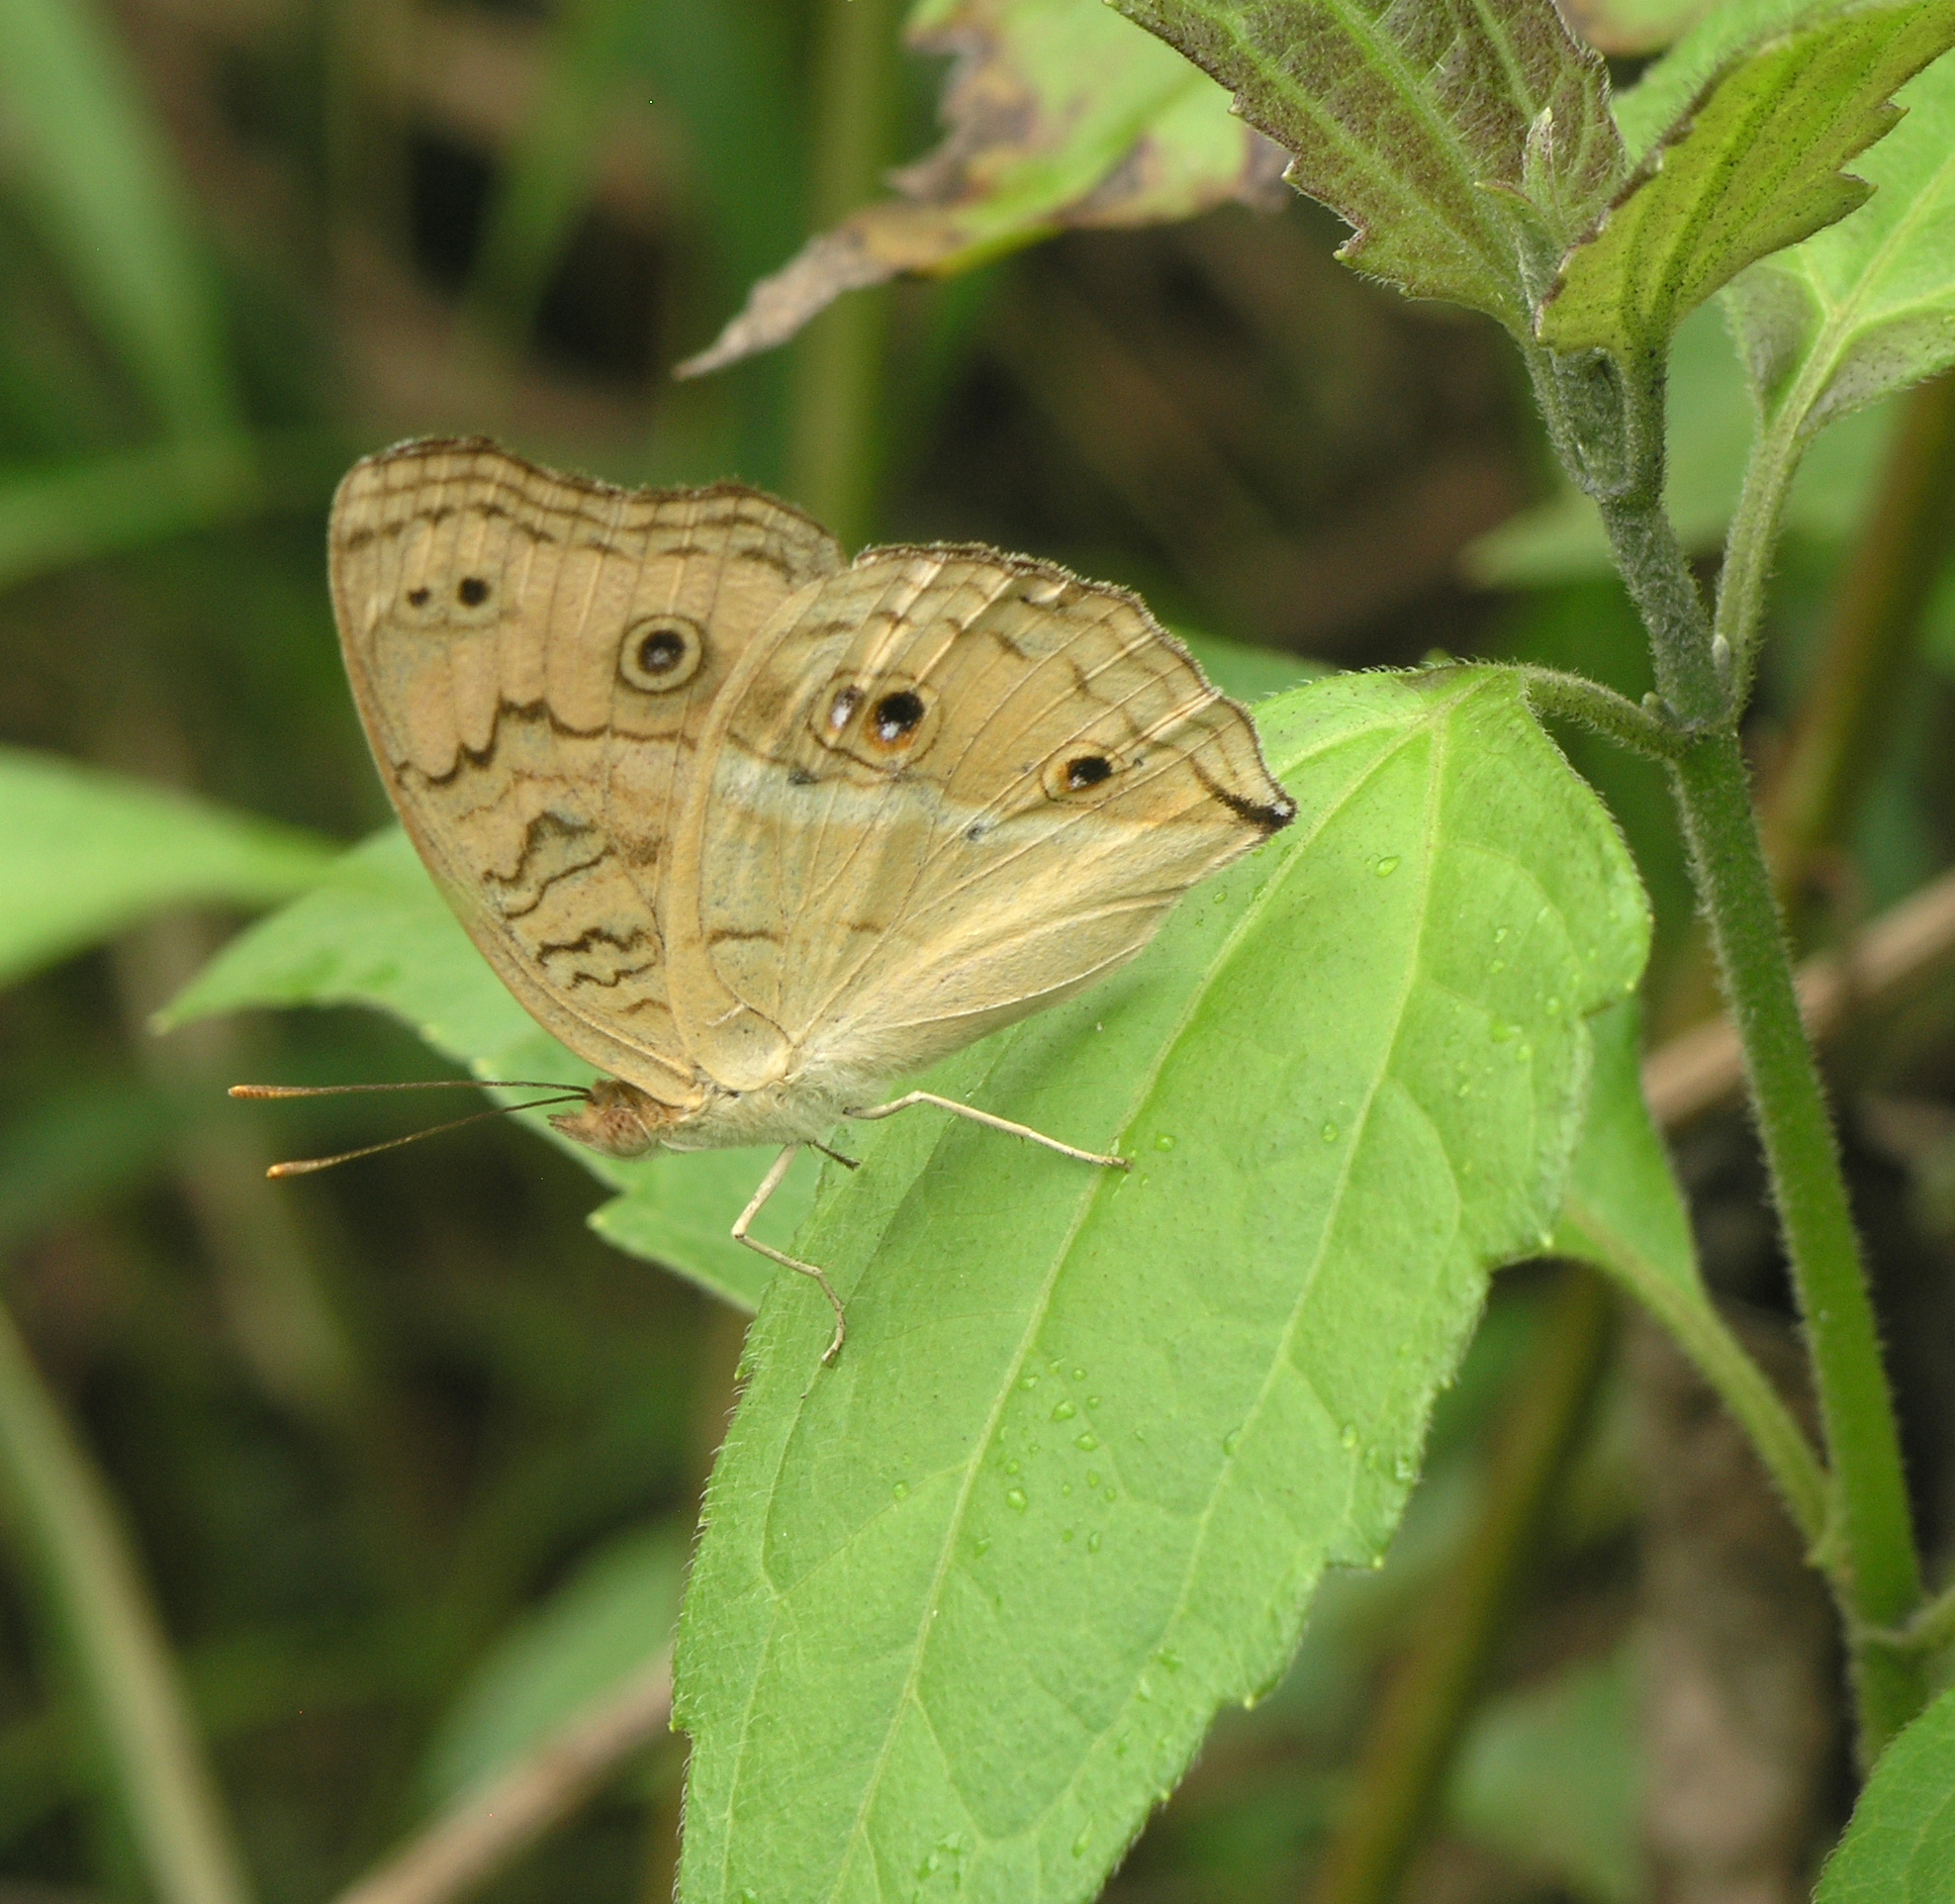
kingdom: Animalia
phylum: Arthropoda
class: Insecta
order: Lepidoptera
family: Nymphalidae
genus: Junonia
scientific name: Junonia almana
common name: Peacock pansy
